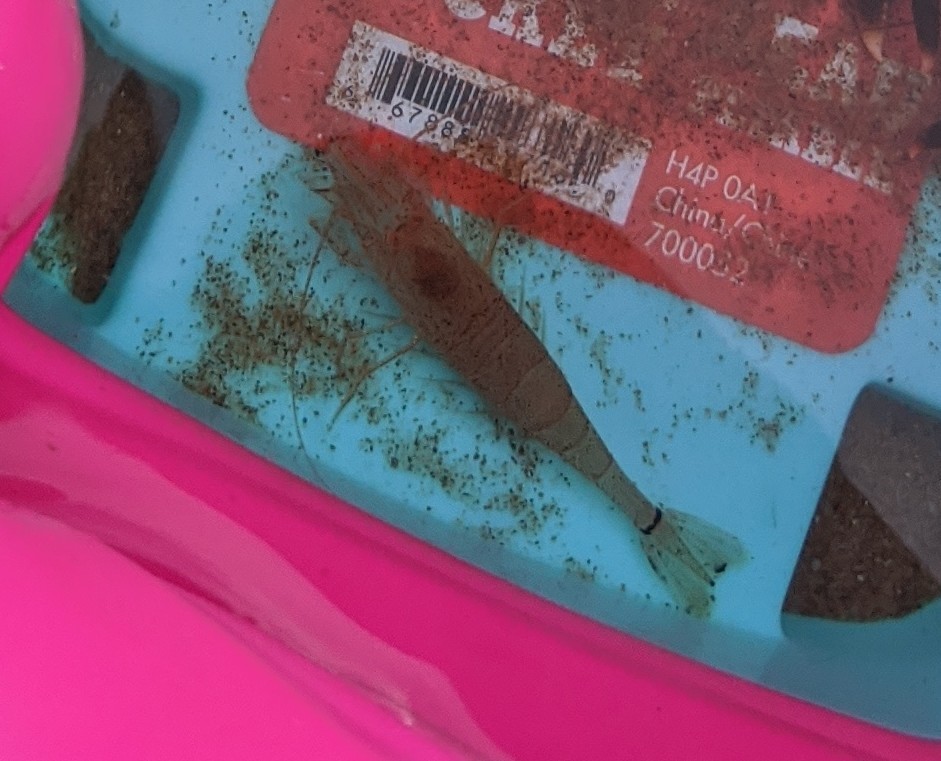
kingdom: Animalia
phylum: Arthropoda
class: Malacostraca
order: Decapoda
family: Crangonidae
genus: Crangon
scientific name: Crangon septemspinosa
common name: Bail shrimp
